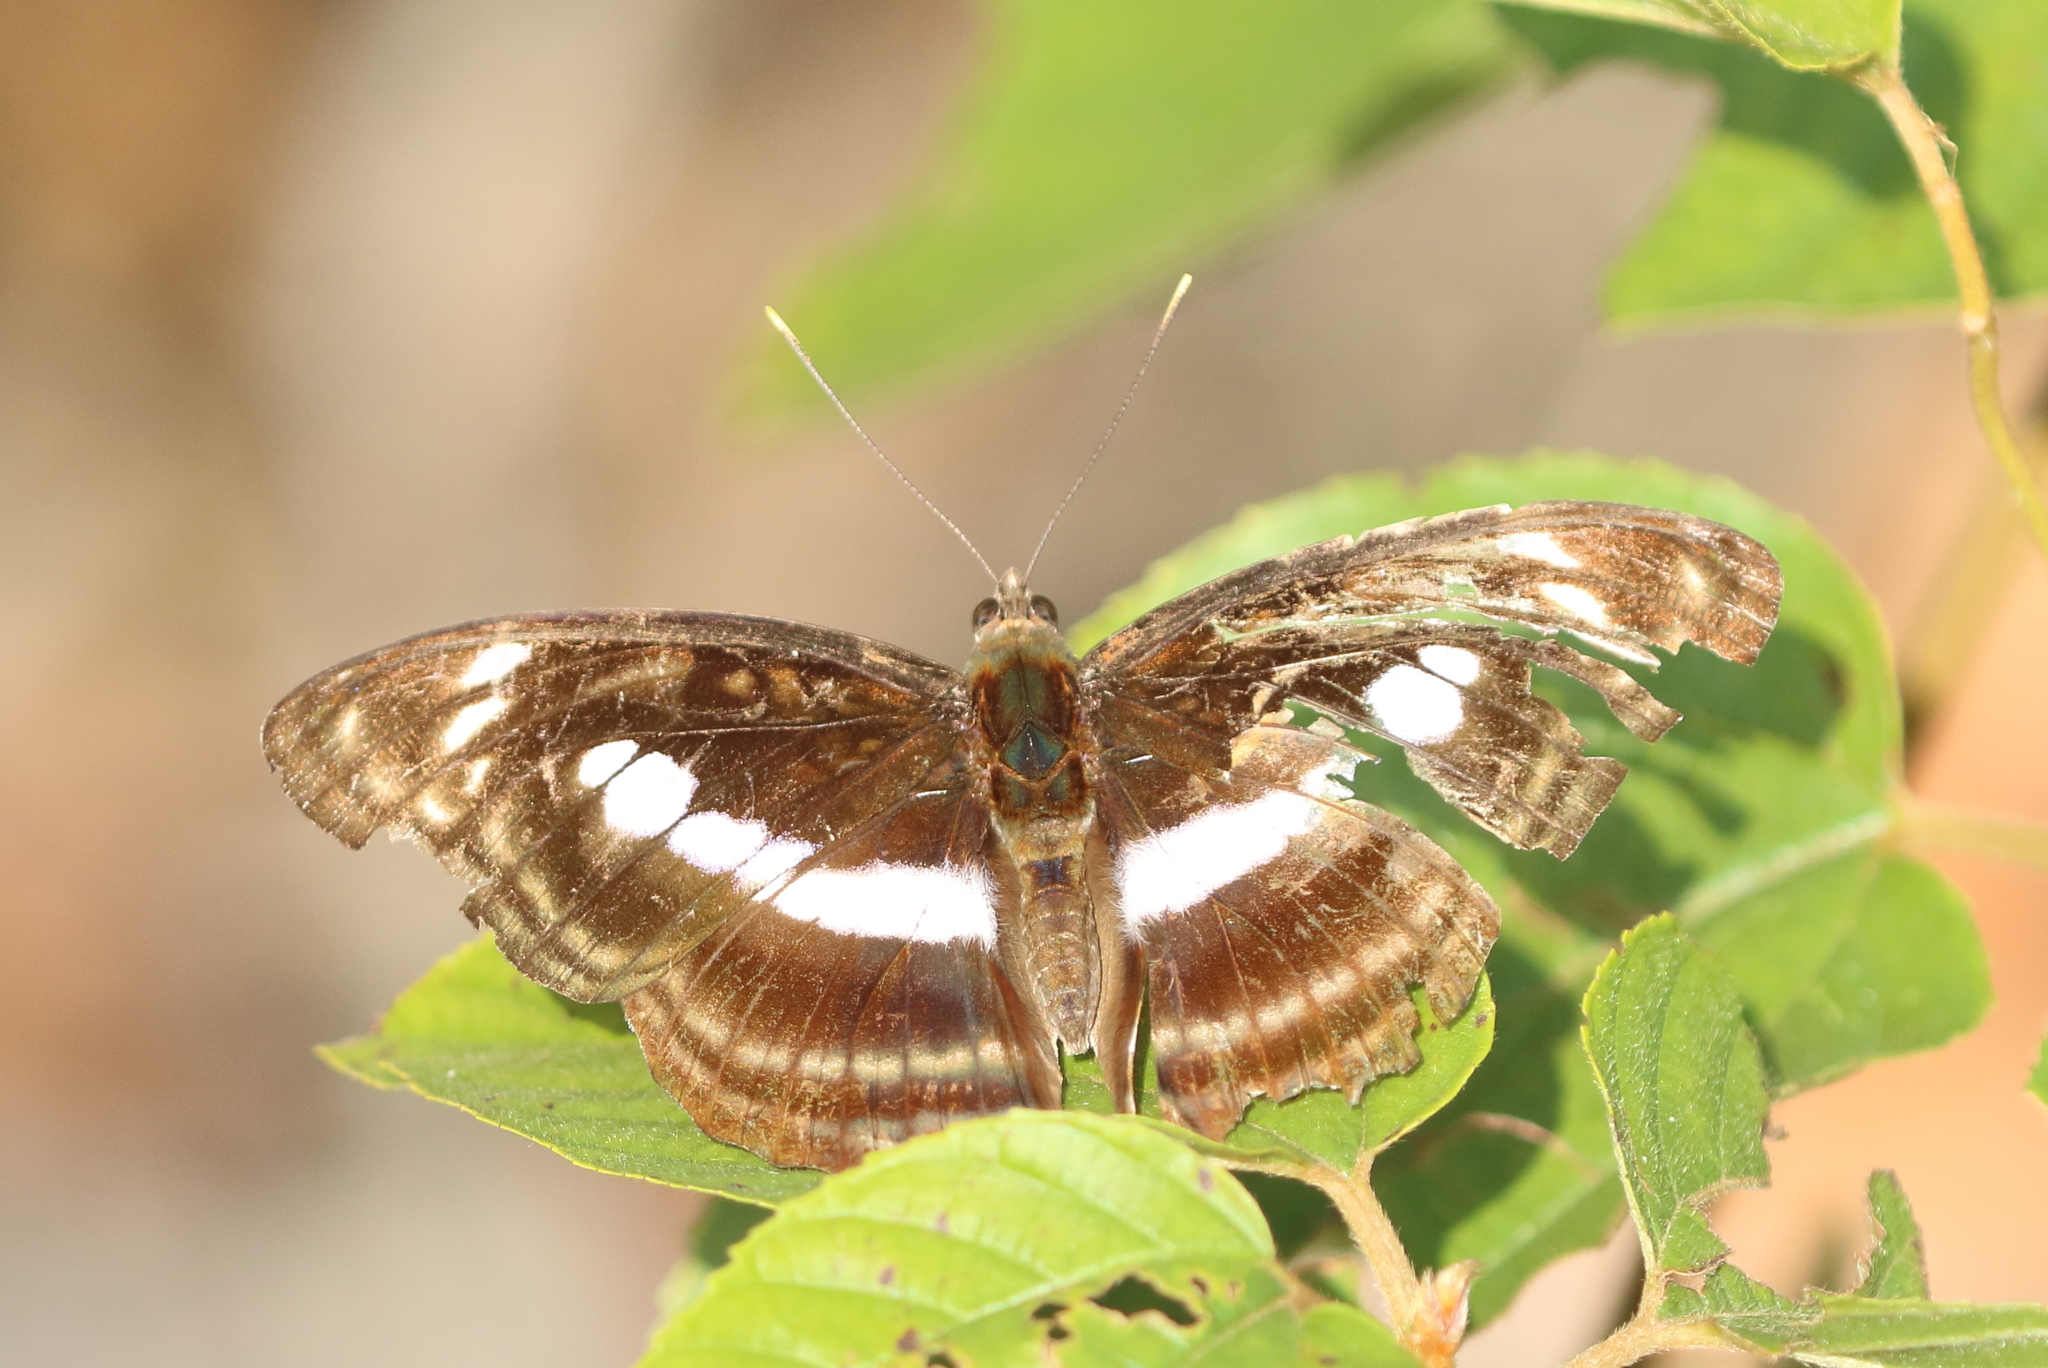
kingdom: Animalia
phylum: Arthropoda
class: Insecta
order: Lepidoptera
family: Nymphalidae
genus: Parathyma
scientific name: Parathyma selenophora
